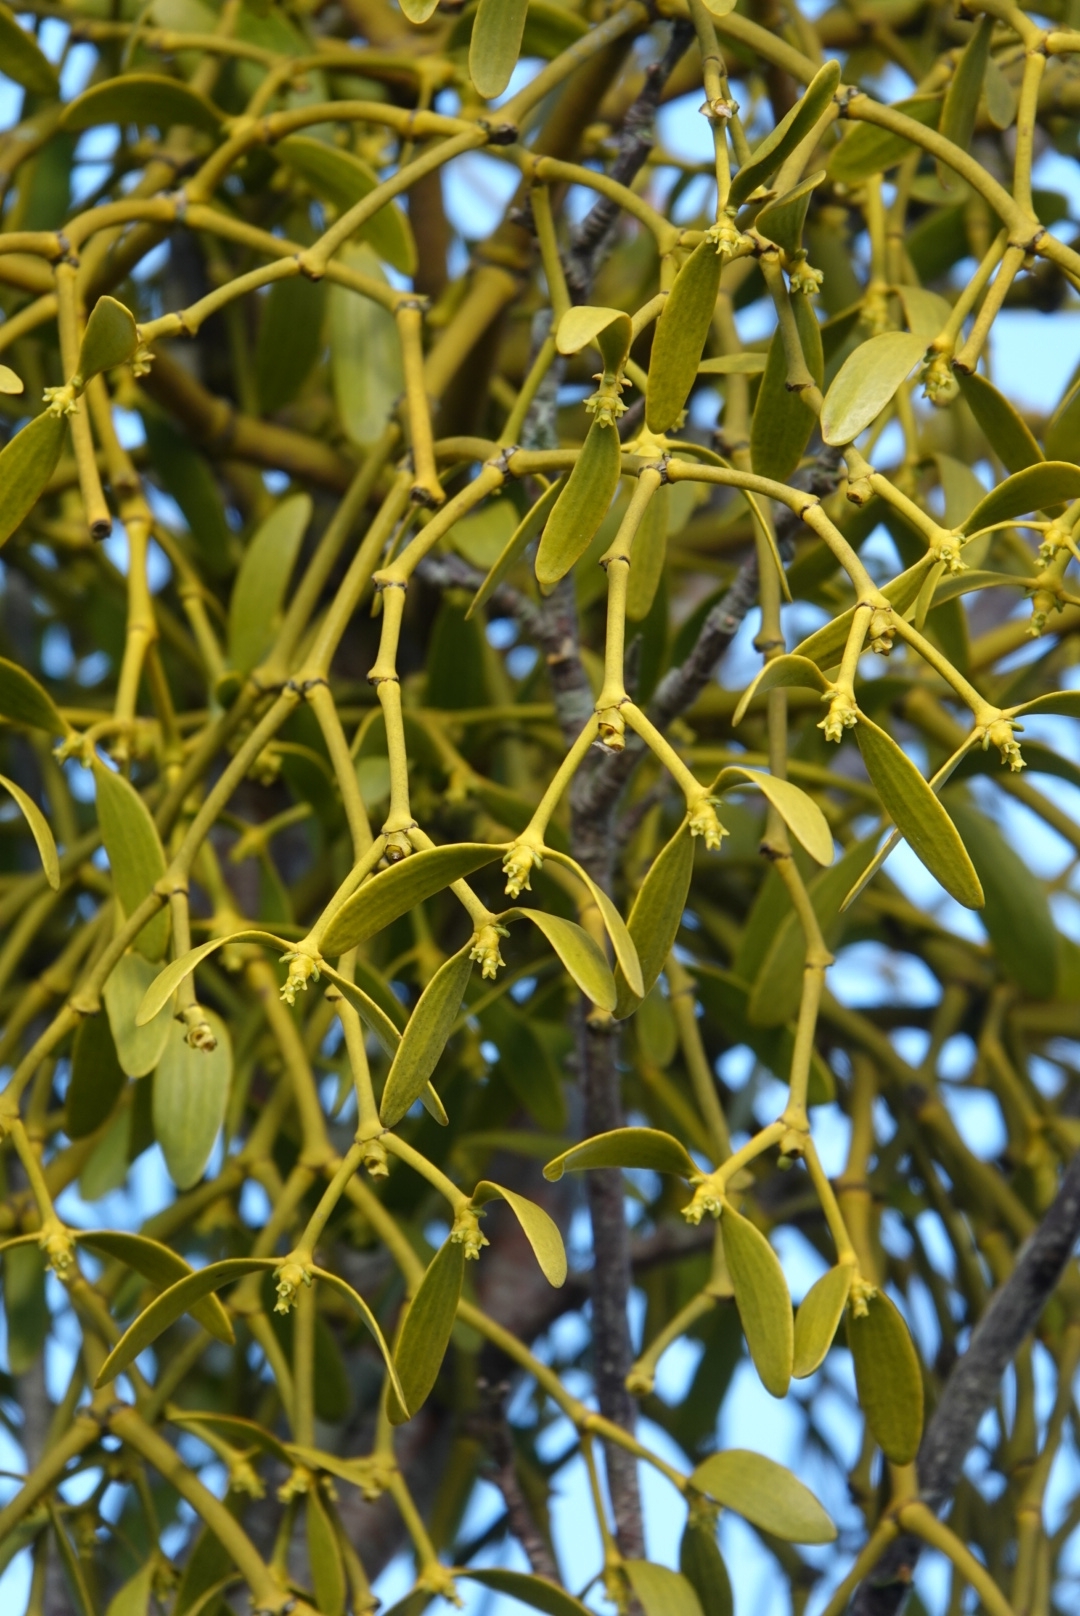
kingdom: Plantae
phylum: Tracheophyta
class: Magnoliopsida
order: Santalales
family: Viscaceae
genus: Viscum
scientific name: Viscum album
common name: Mistletoe
